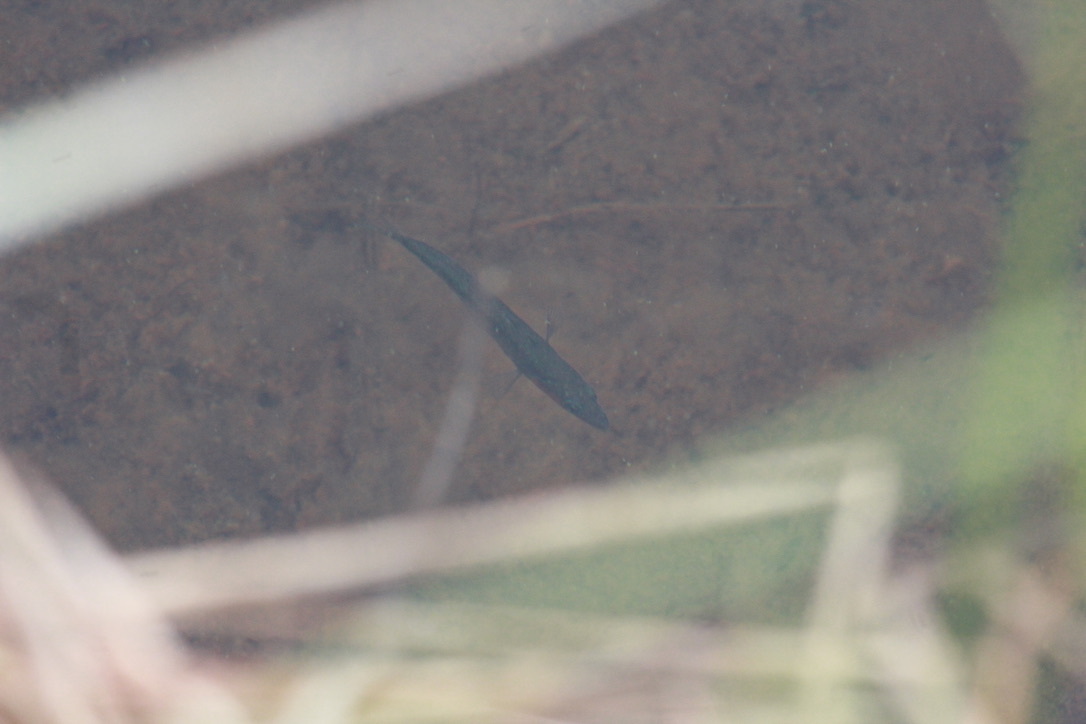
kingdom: Animalia
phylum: Chordata
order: Gasterosteiformes
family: Gasterosteidae
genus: Gasterosteus
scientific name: Gasterosteus aculeatus
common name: Three-spined stickleback
